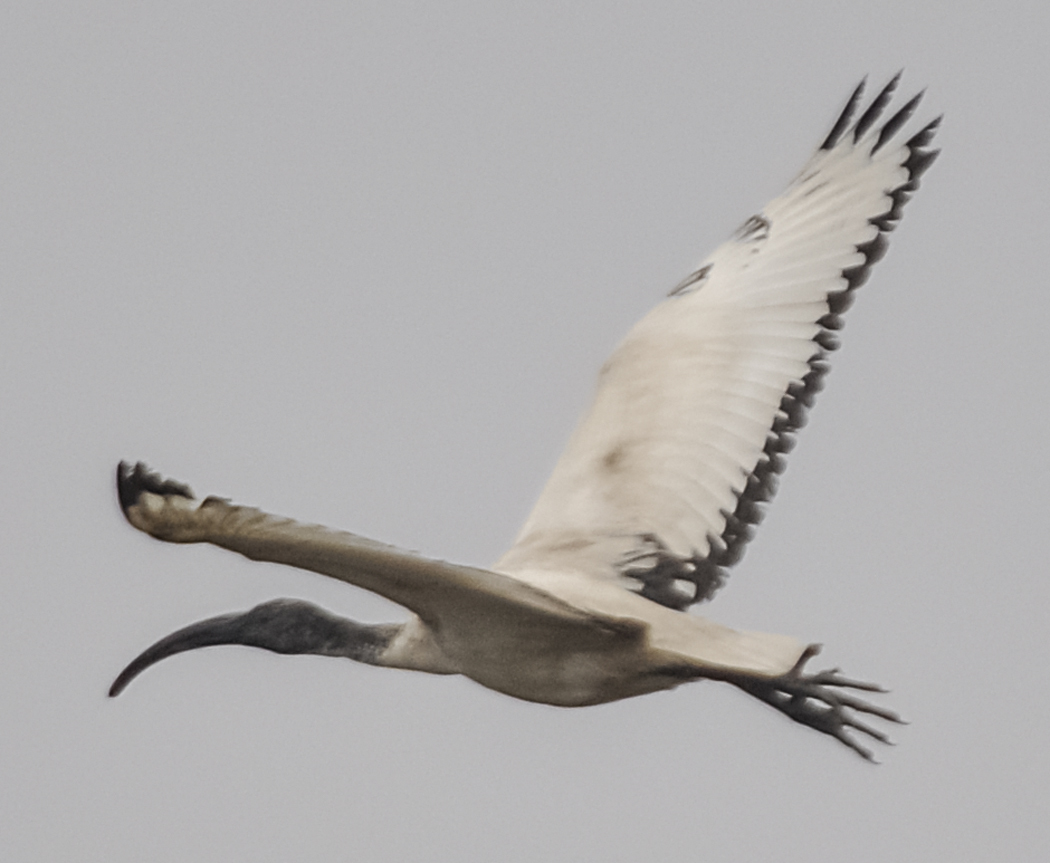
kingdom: Animalia
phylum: Chordata
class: Aves
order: Pelecaniformes
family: Threskiornithidae
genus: Threskiornis
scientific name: Threskiornis aethiopicus
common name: Sacred ibis
